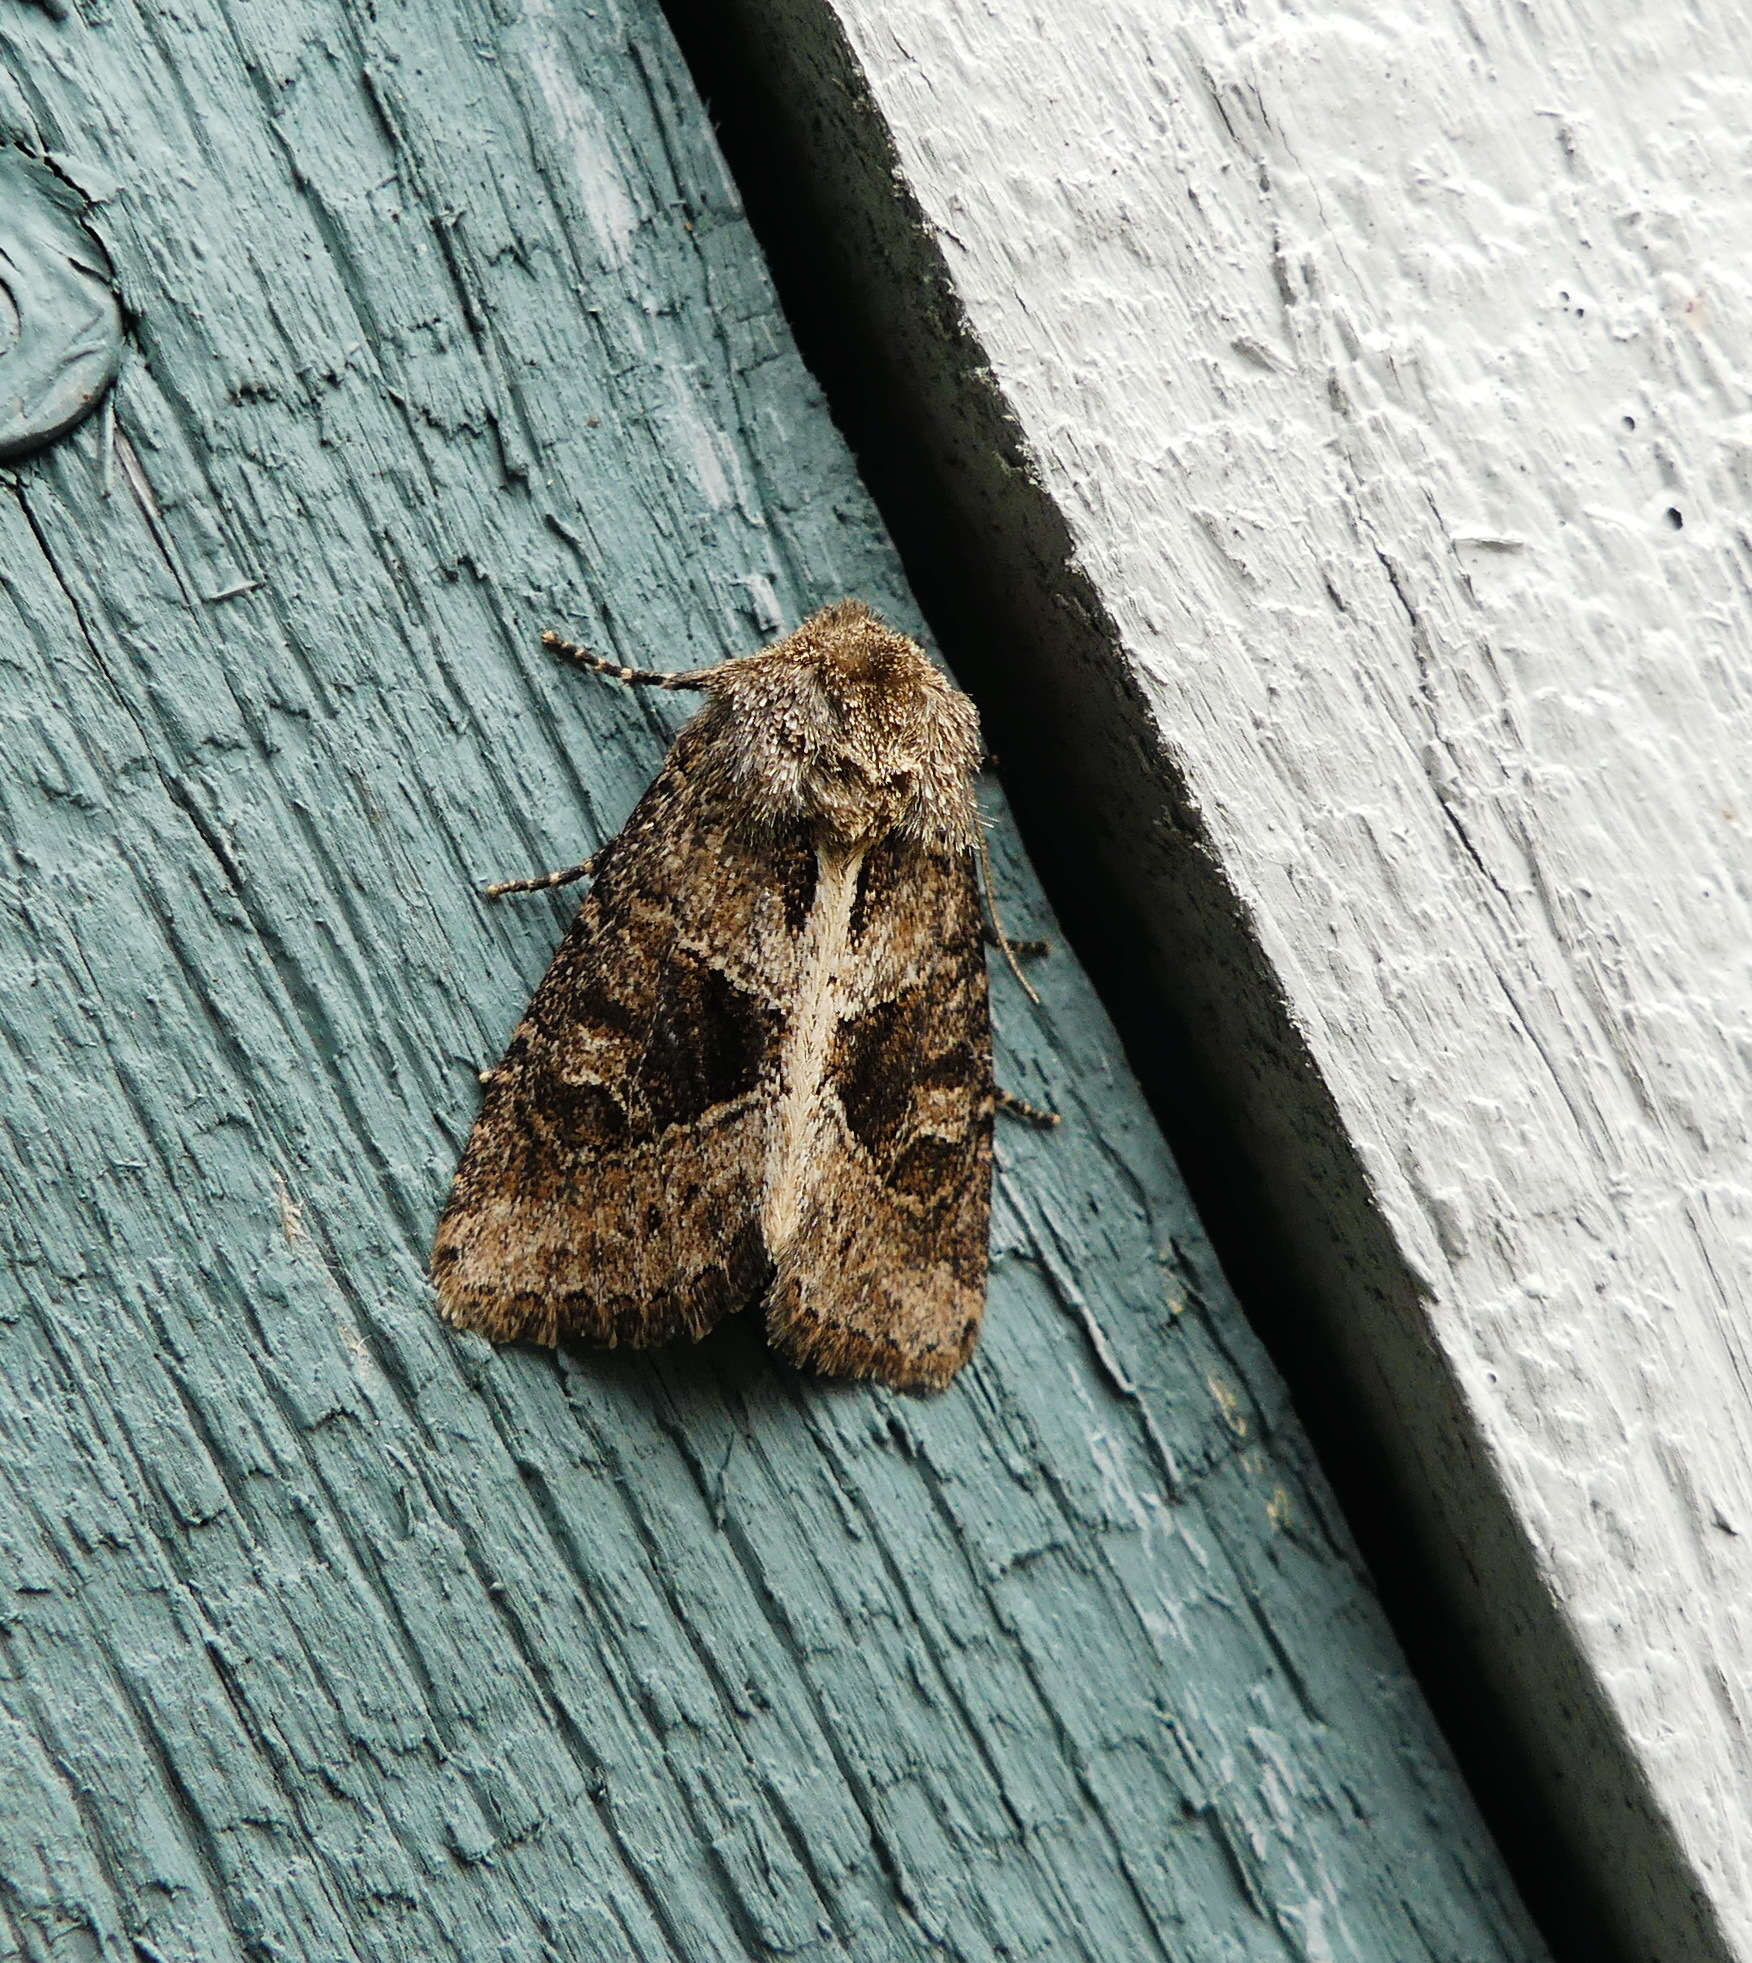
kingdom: Animalia
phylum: Arthropoda
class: Insecta
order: Lepidoptera
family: Noctuidae
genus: Oligia
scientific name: Oligia obtusa
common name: Obtuse sedge borer
